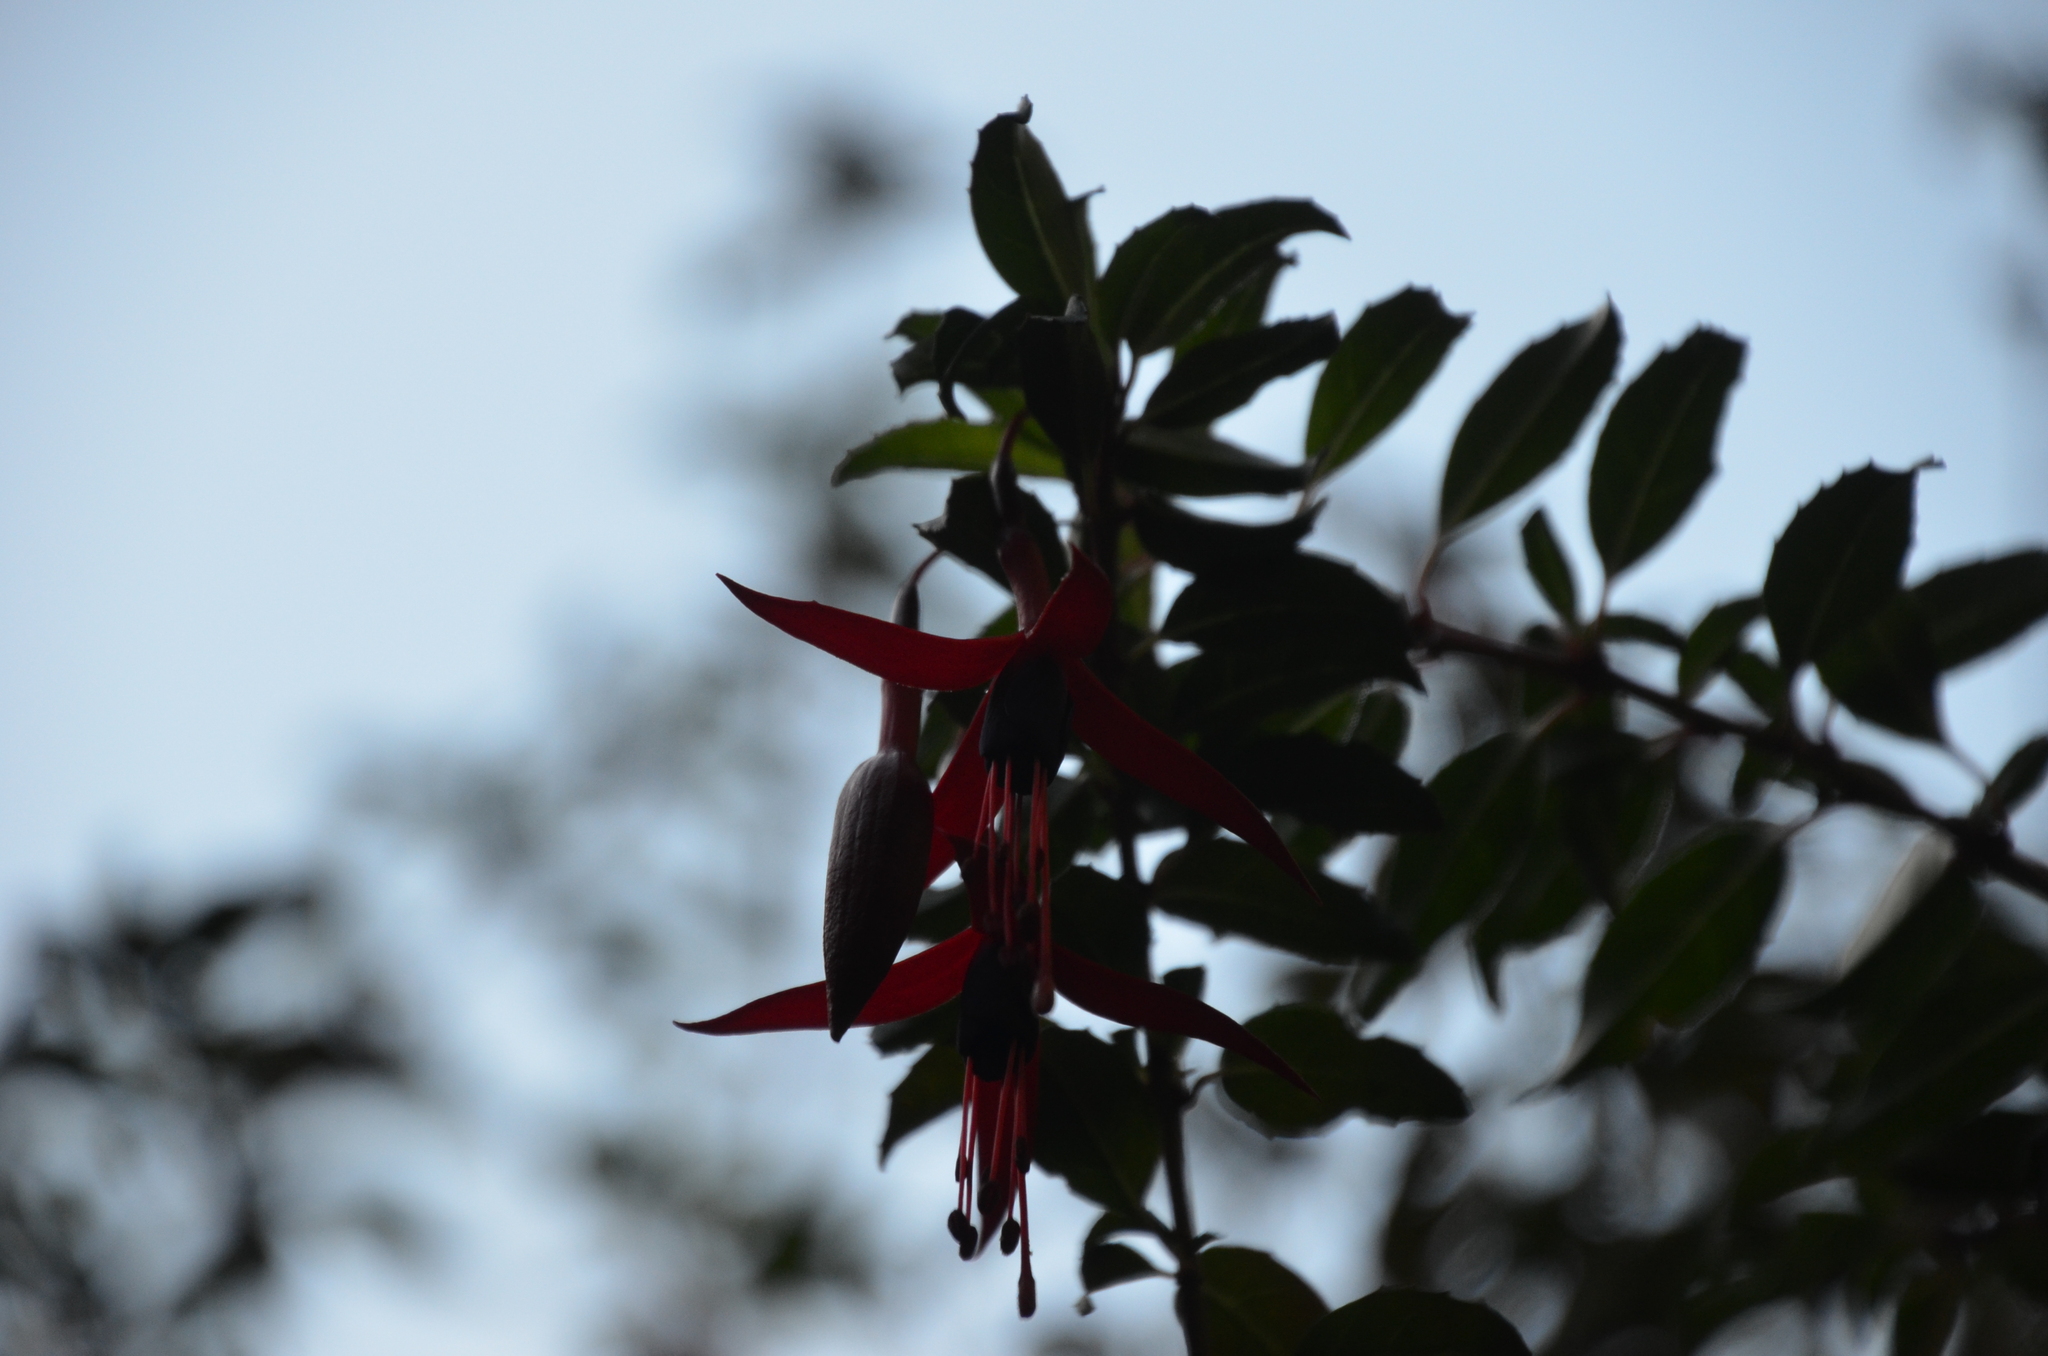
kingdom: Plantae
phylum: Tracheophyta
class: Magnoliopsida
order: Myrtales
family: Onagraceae
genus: Fuchsia
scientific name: Fuchsia magellanica
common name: Hardy fuchsia
